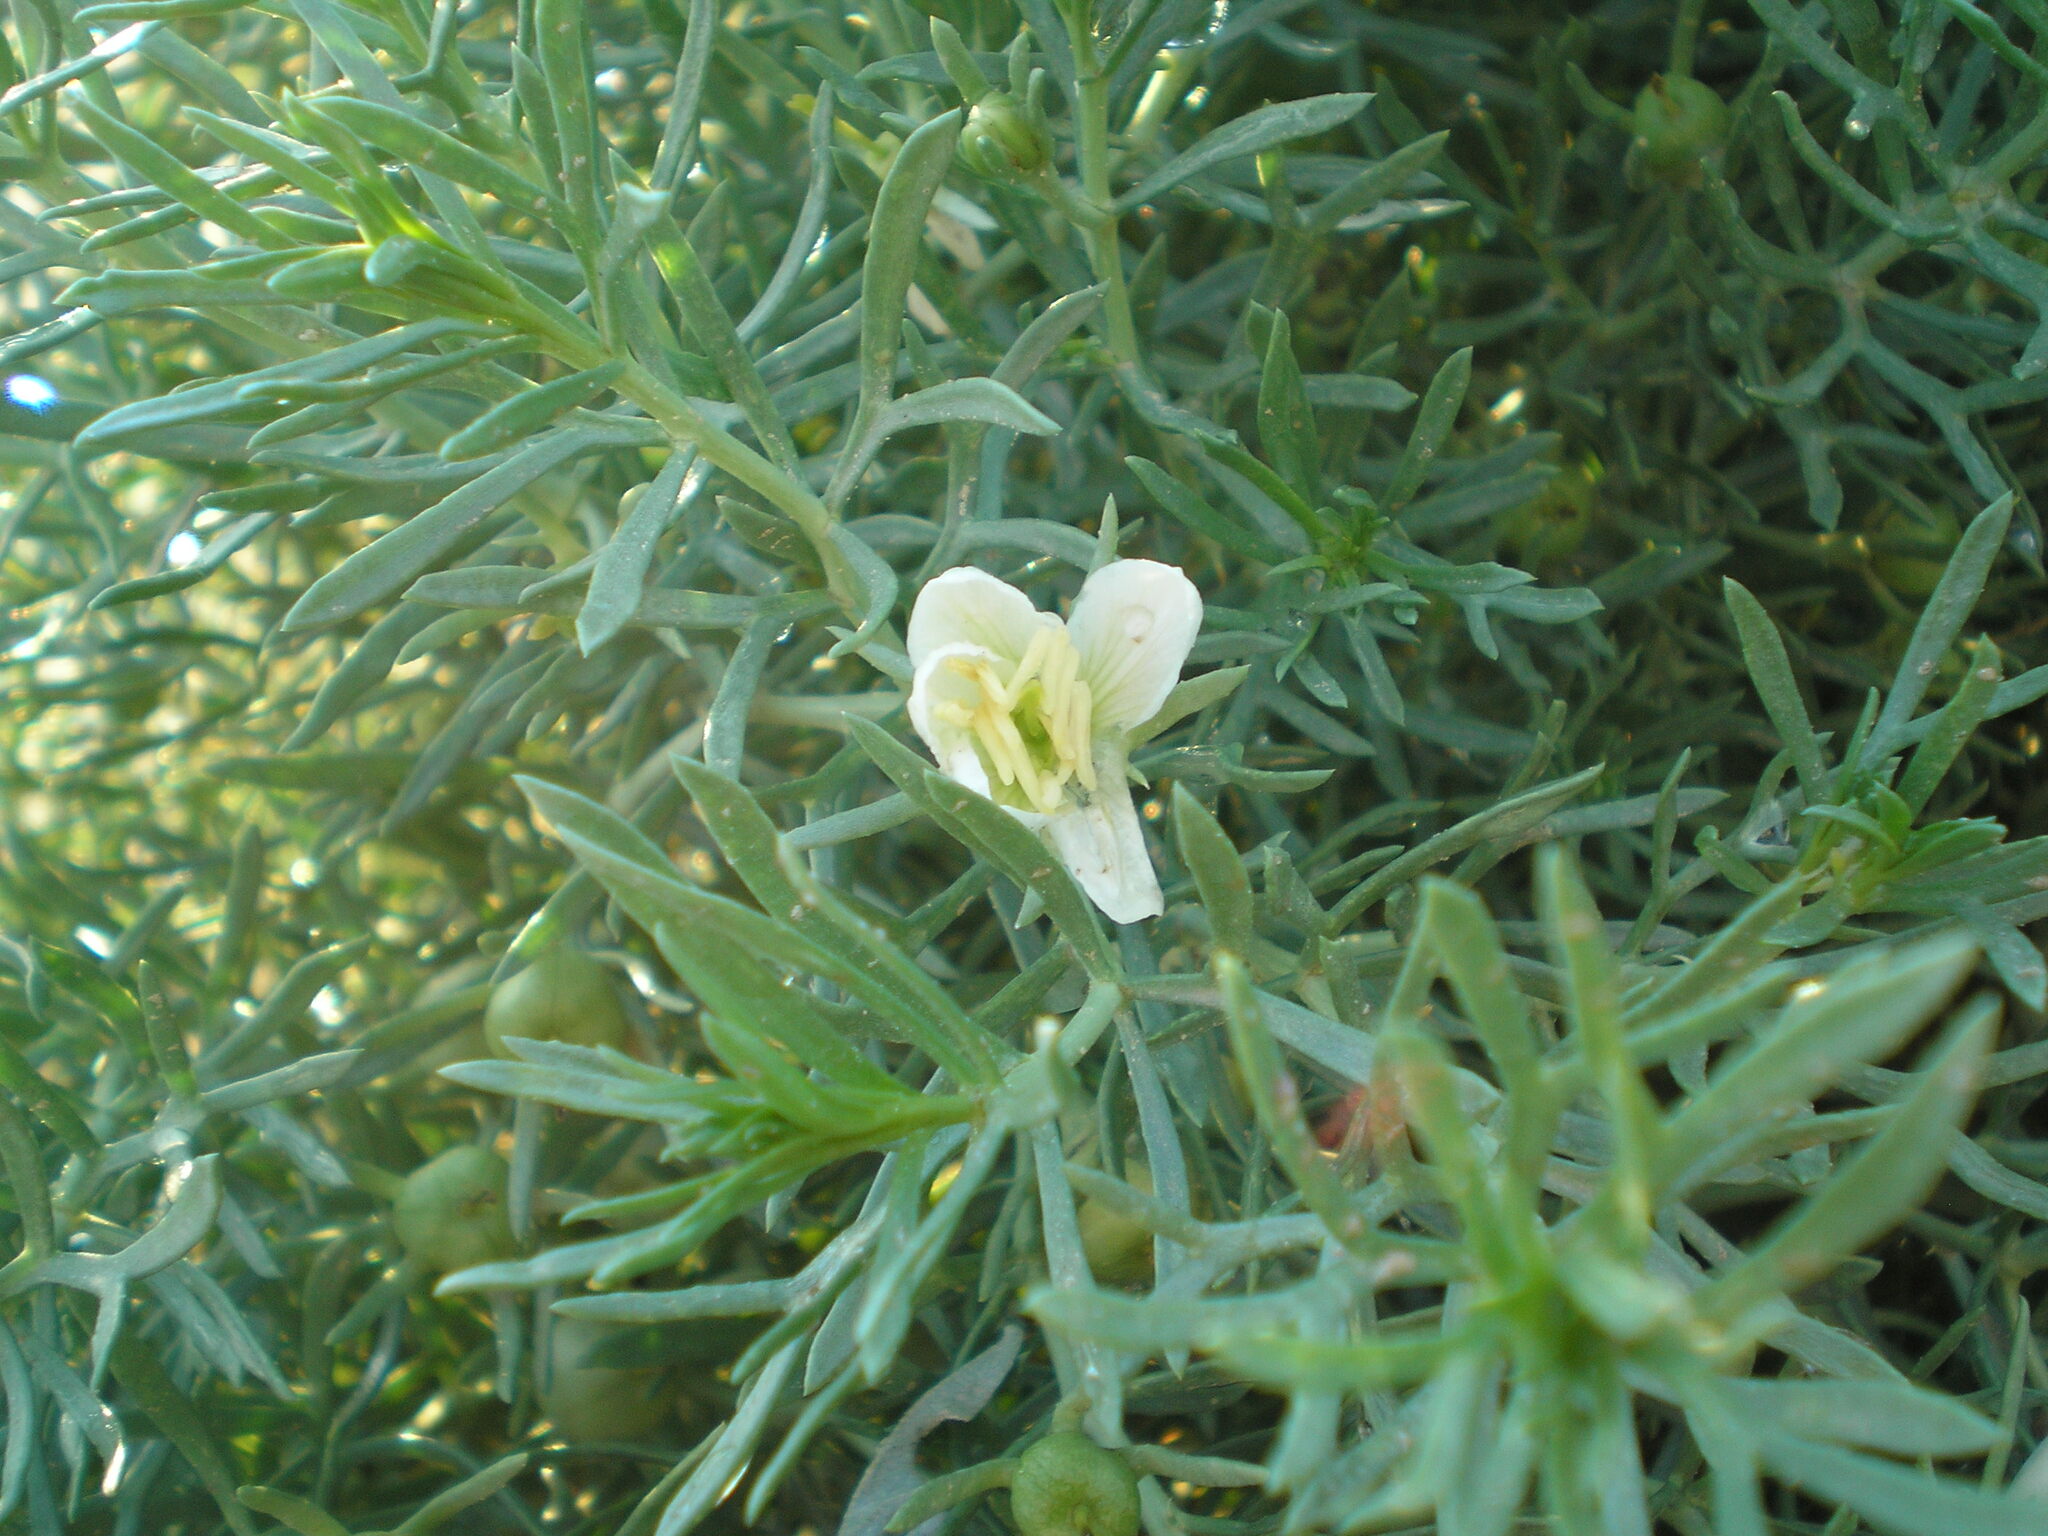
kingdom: Plantae
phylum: Tracheophyta
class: Magnoliopsida
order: Sapindales
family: Tetradiclidaceae
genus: Peganum
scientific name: Peganum harmala
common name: Harmal peganum
